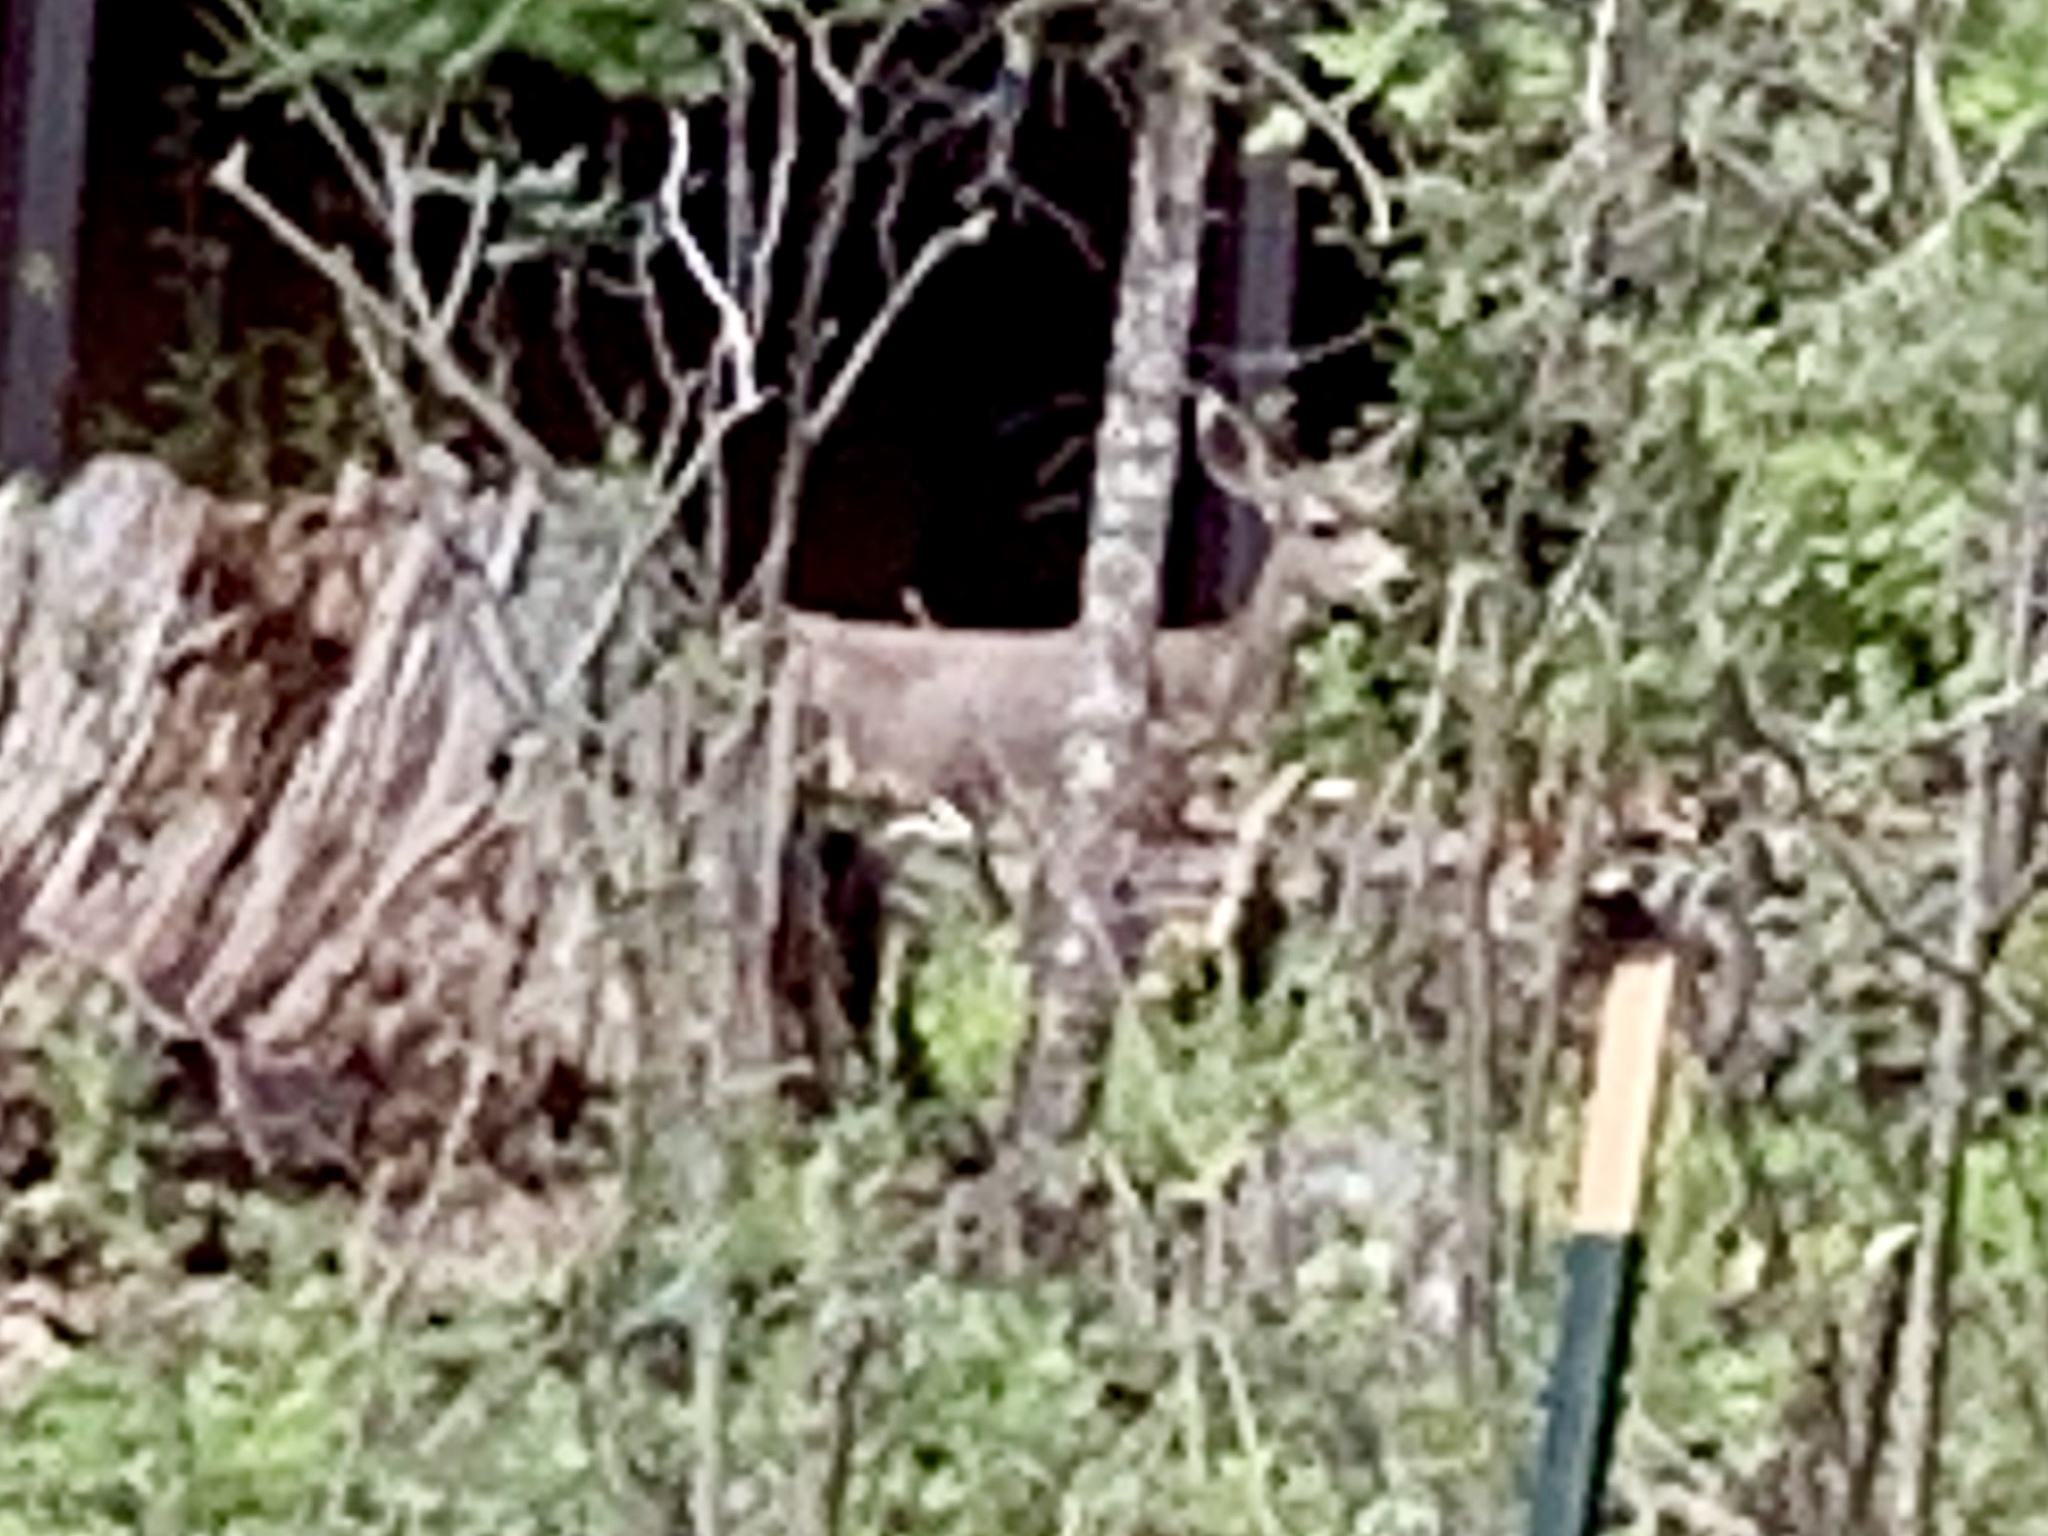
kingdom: Animalia
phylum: Chordata
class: Mammalia
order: Artiodactyla
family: Cervidae
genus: Odocoileus
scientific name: Odocoileus hemionus
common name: Mule deer
